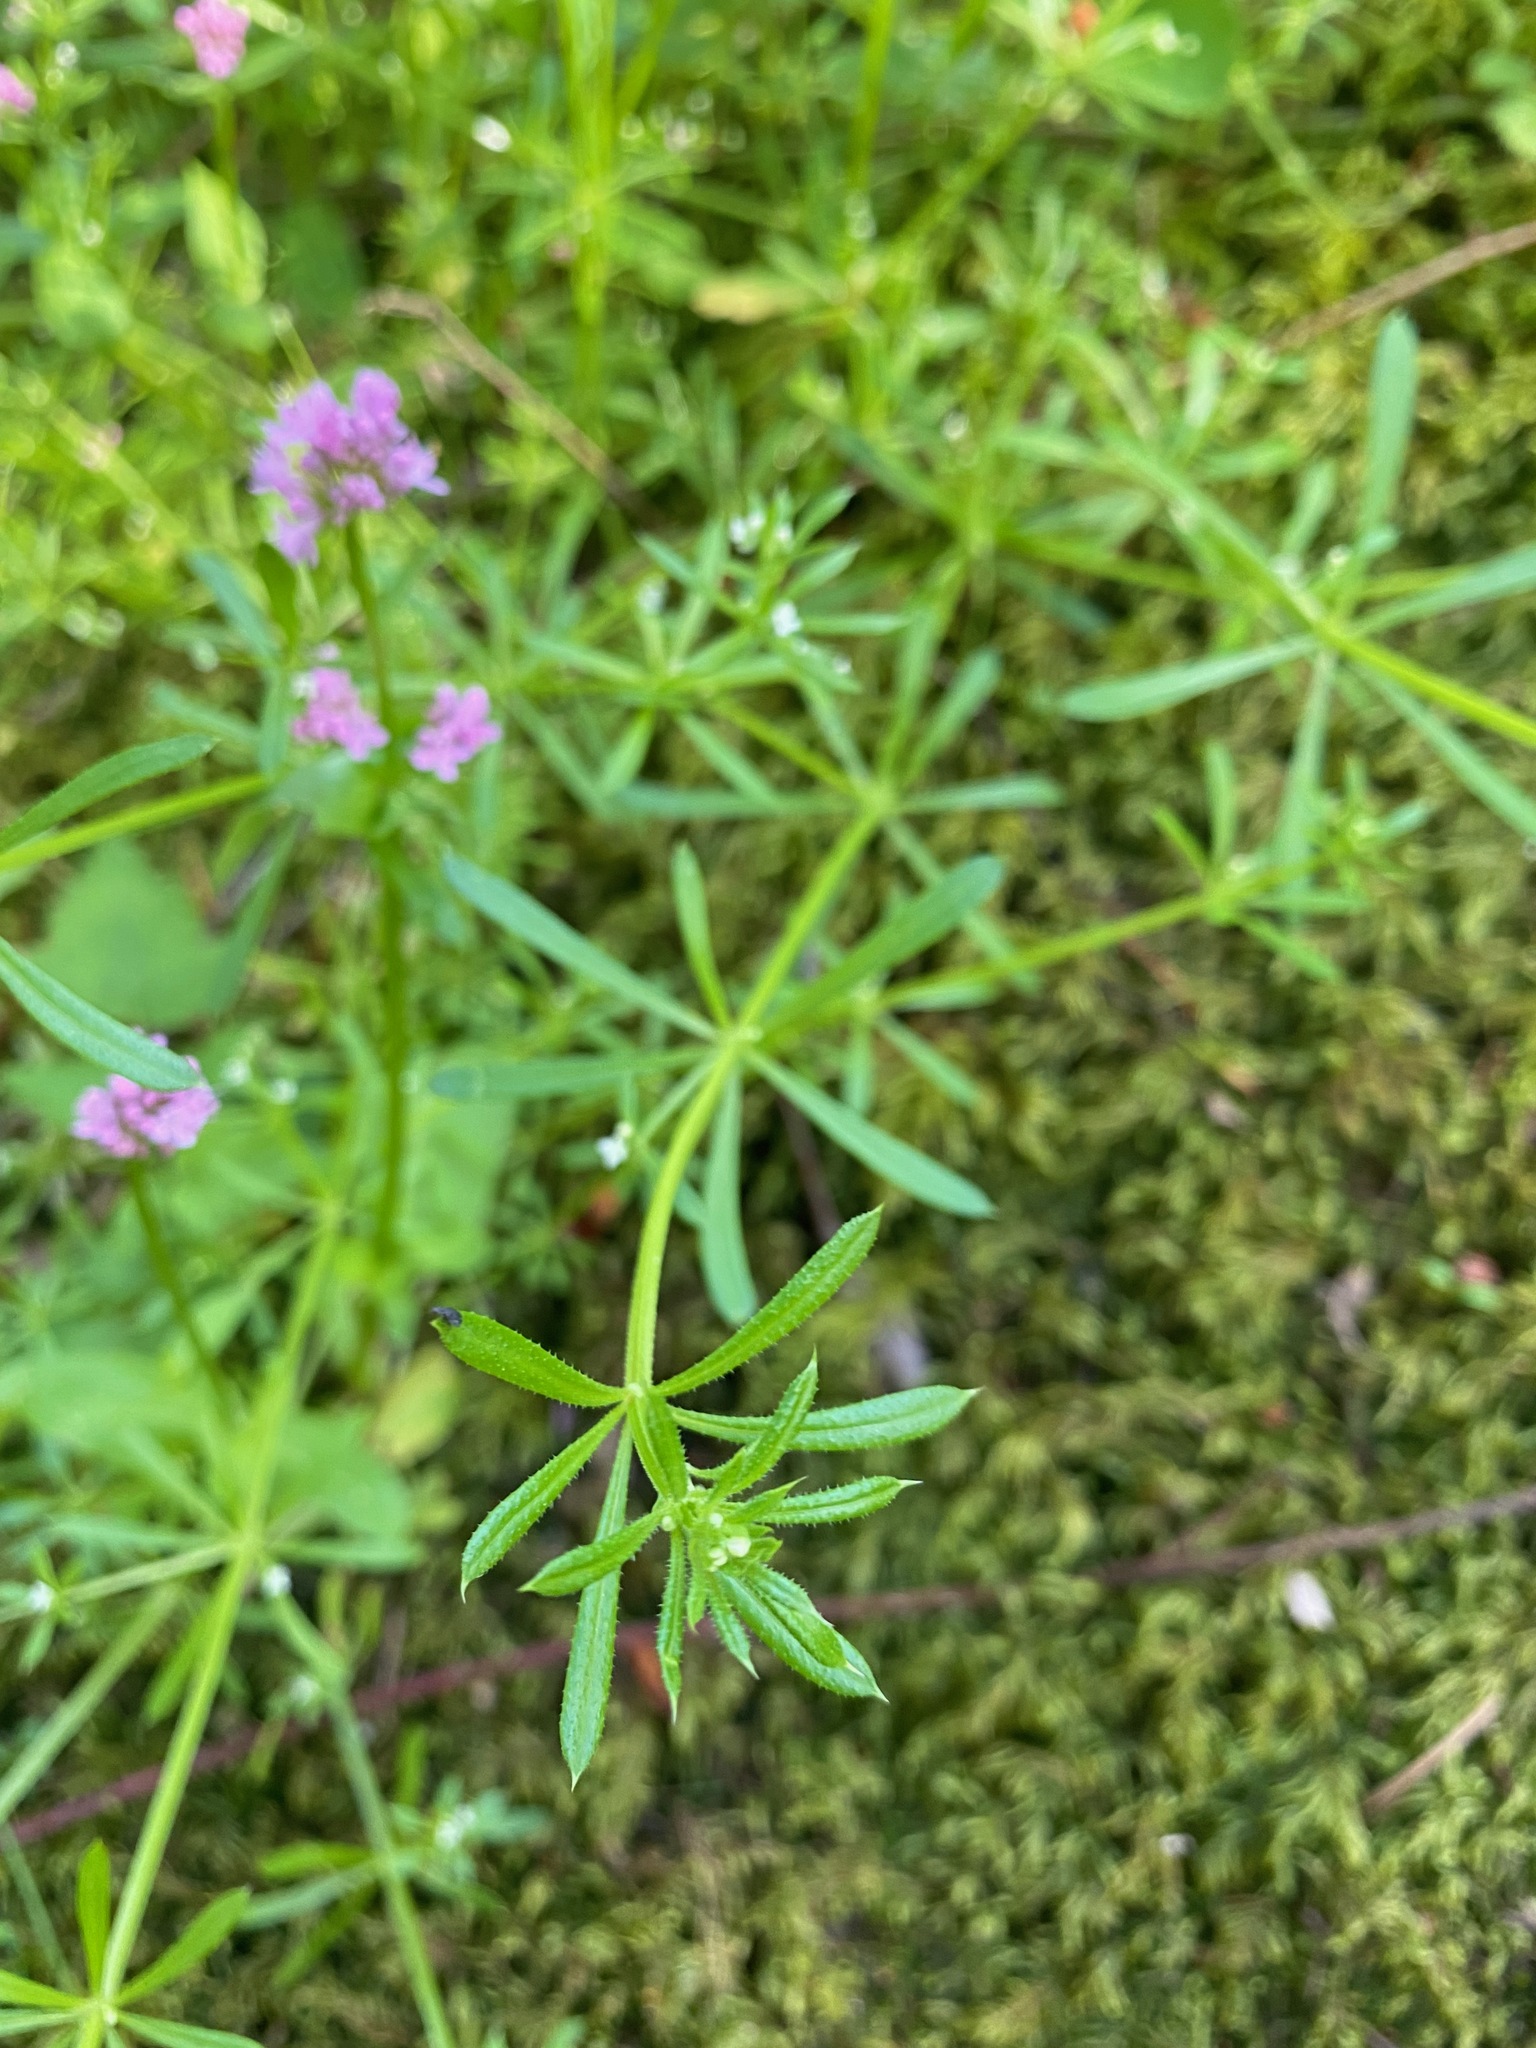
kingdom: Plantae
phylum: Tracheophyta
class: Magnoliopsida
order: Gentianales
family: Rubiaceae
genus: Galium
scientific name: Galium aparine
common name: Cleavers
